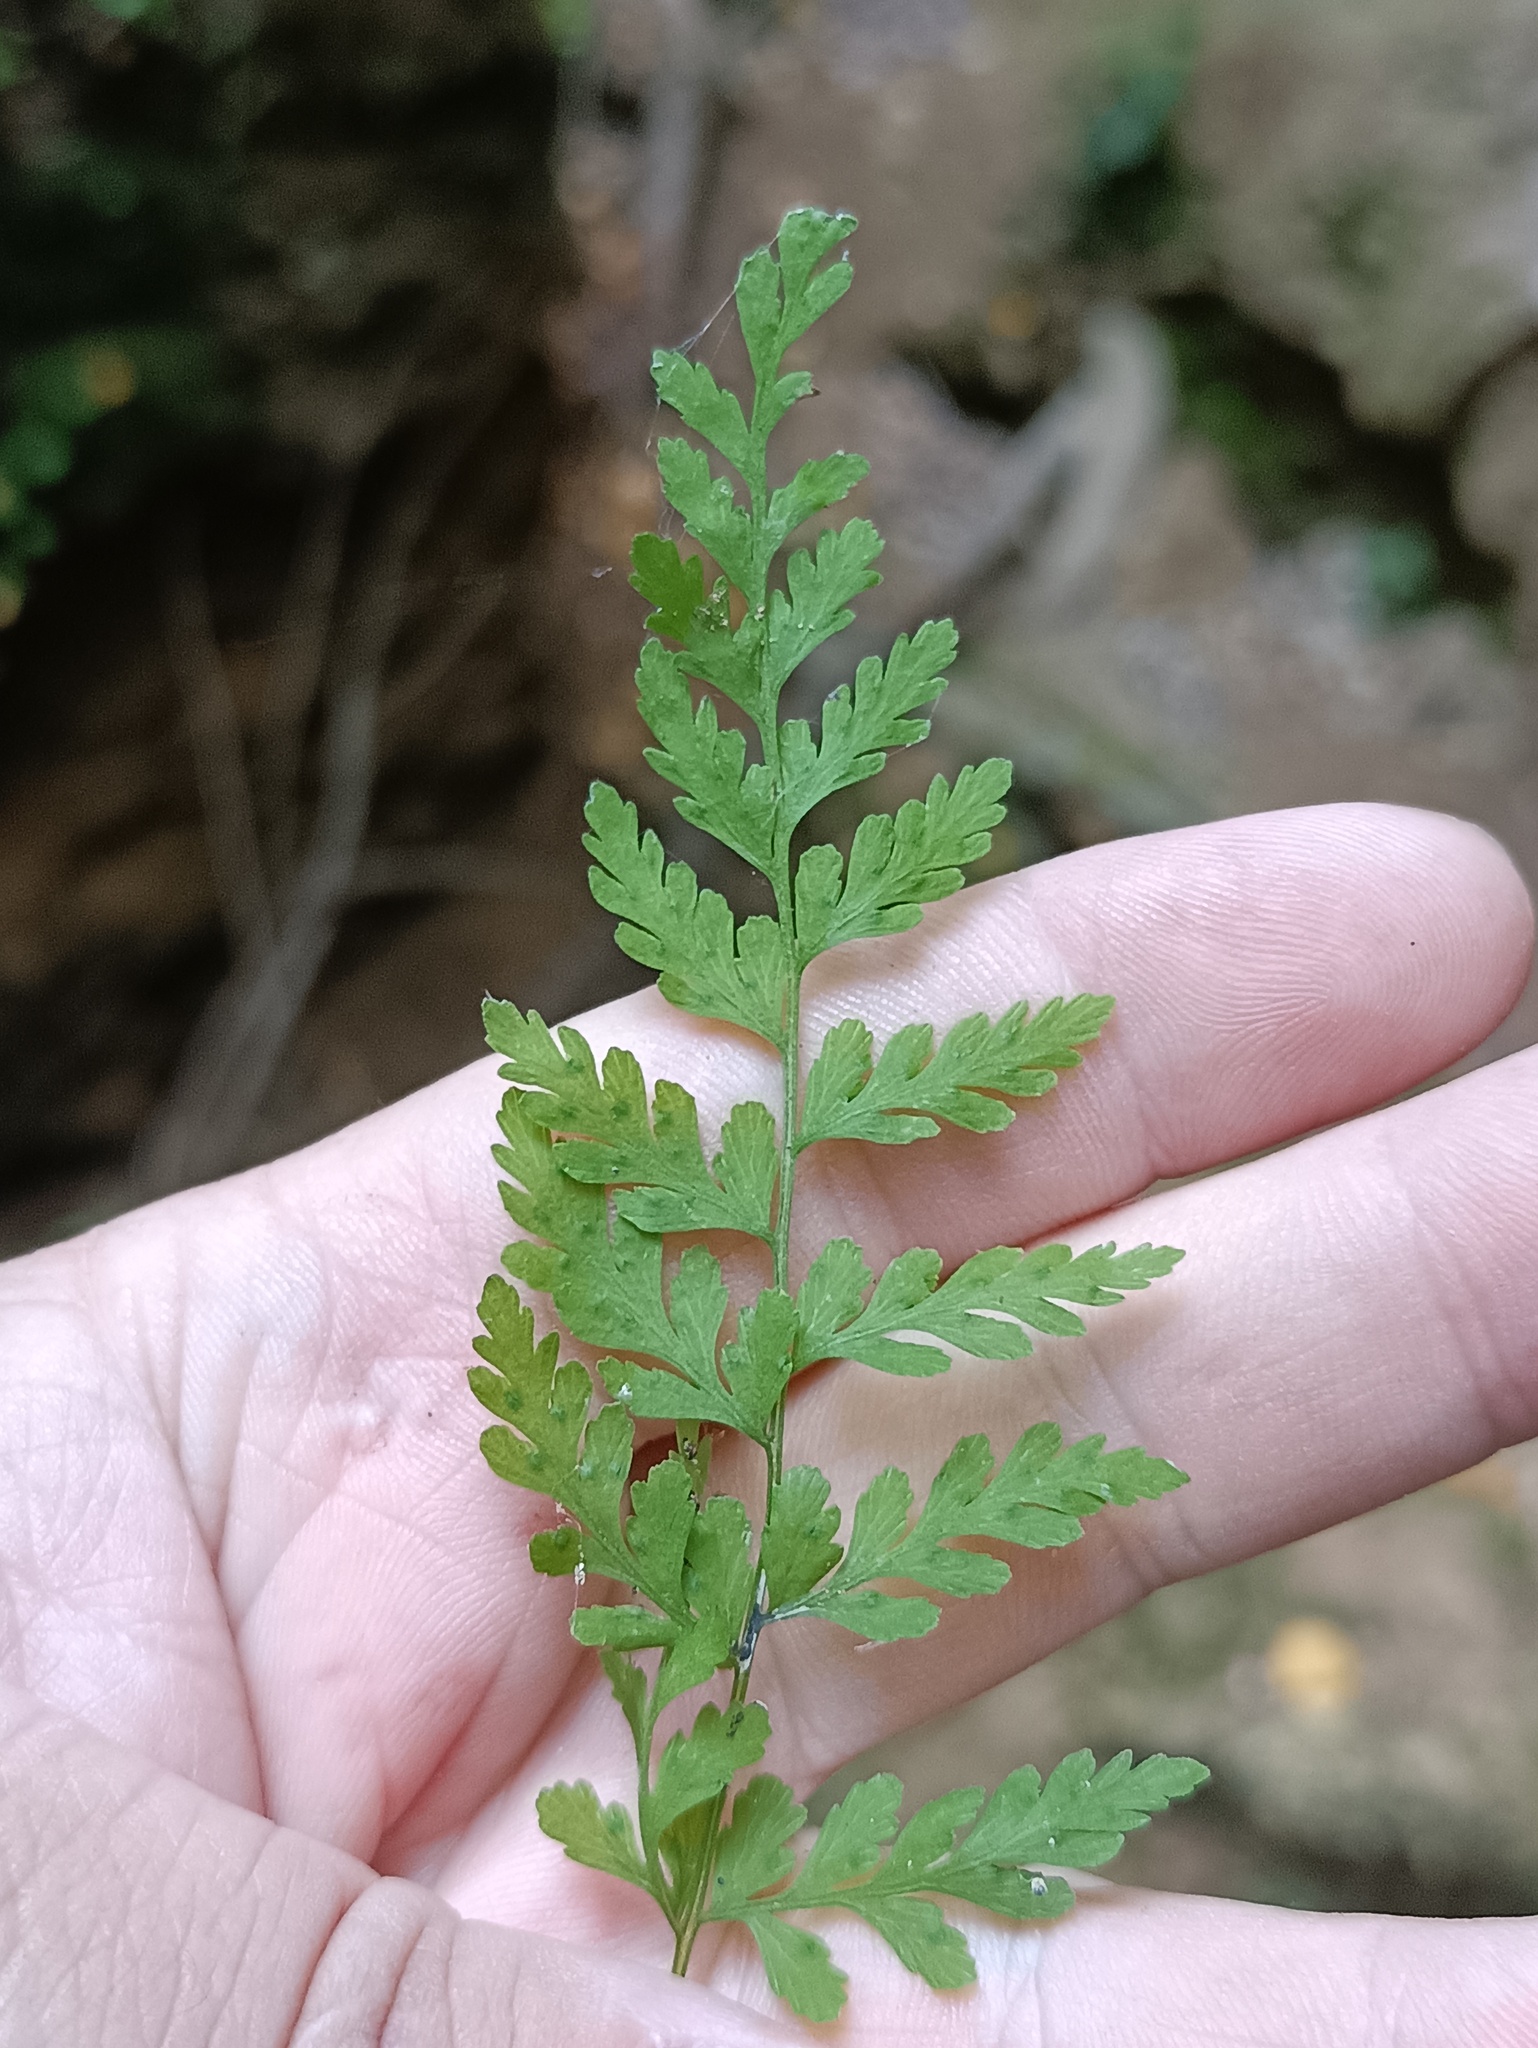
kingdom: Plantae
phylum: Tracheophyta
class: Polypodiopsida
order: Polypodiales
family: Cystopteridaceae
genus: Cystopteris
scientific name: Cystopteris fragilis
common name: Brittle bladder fern
